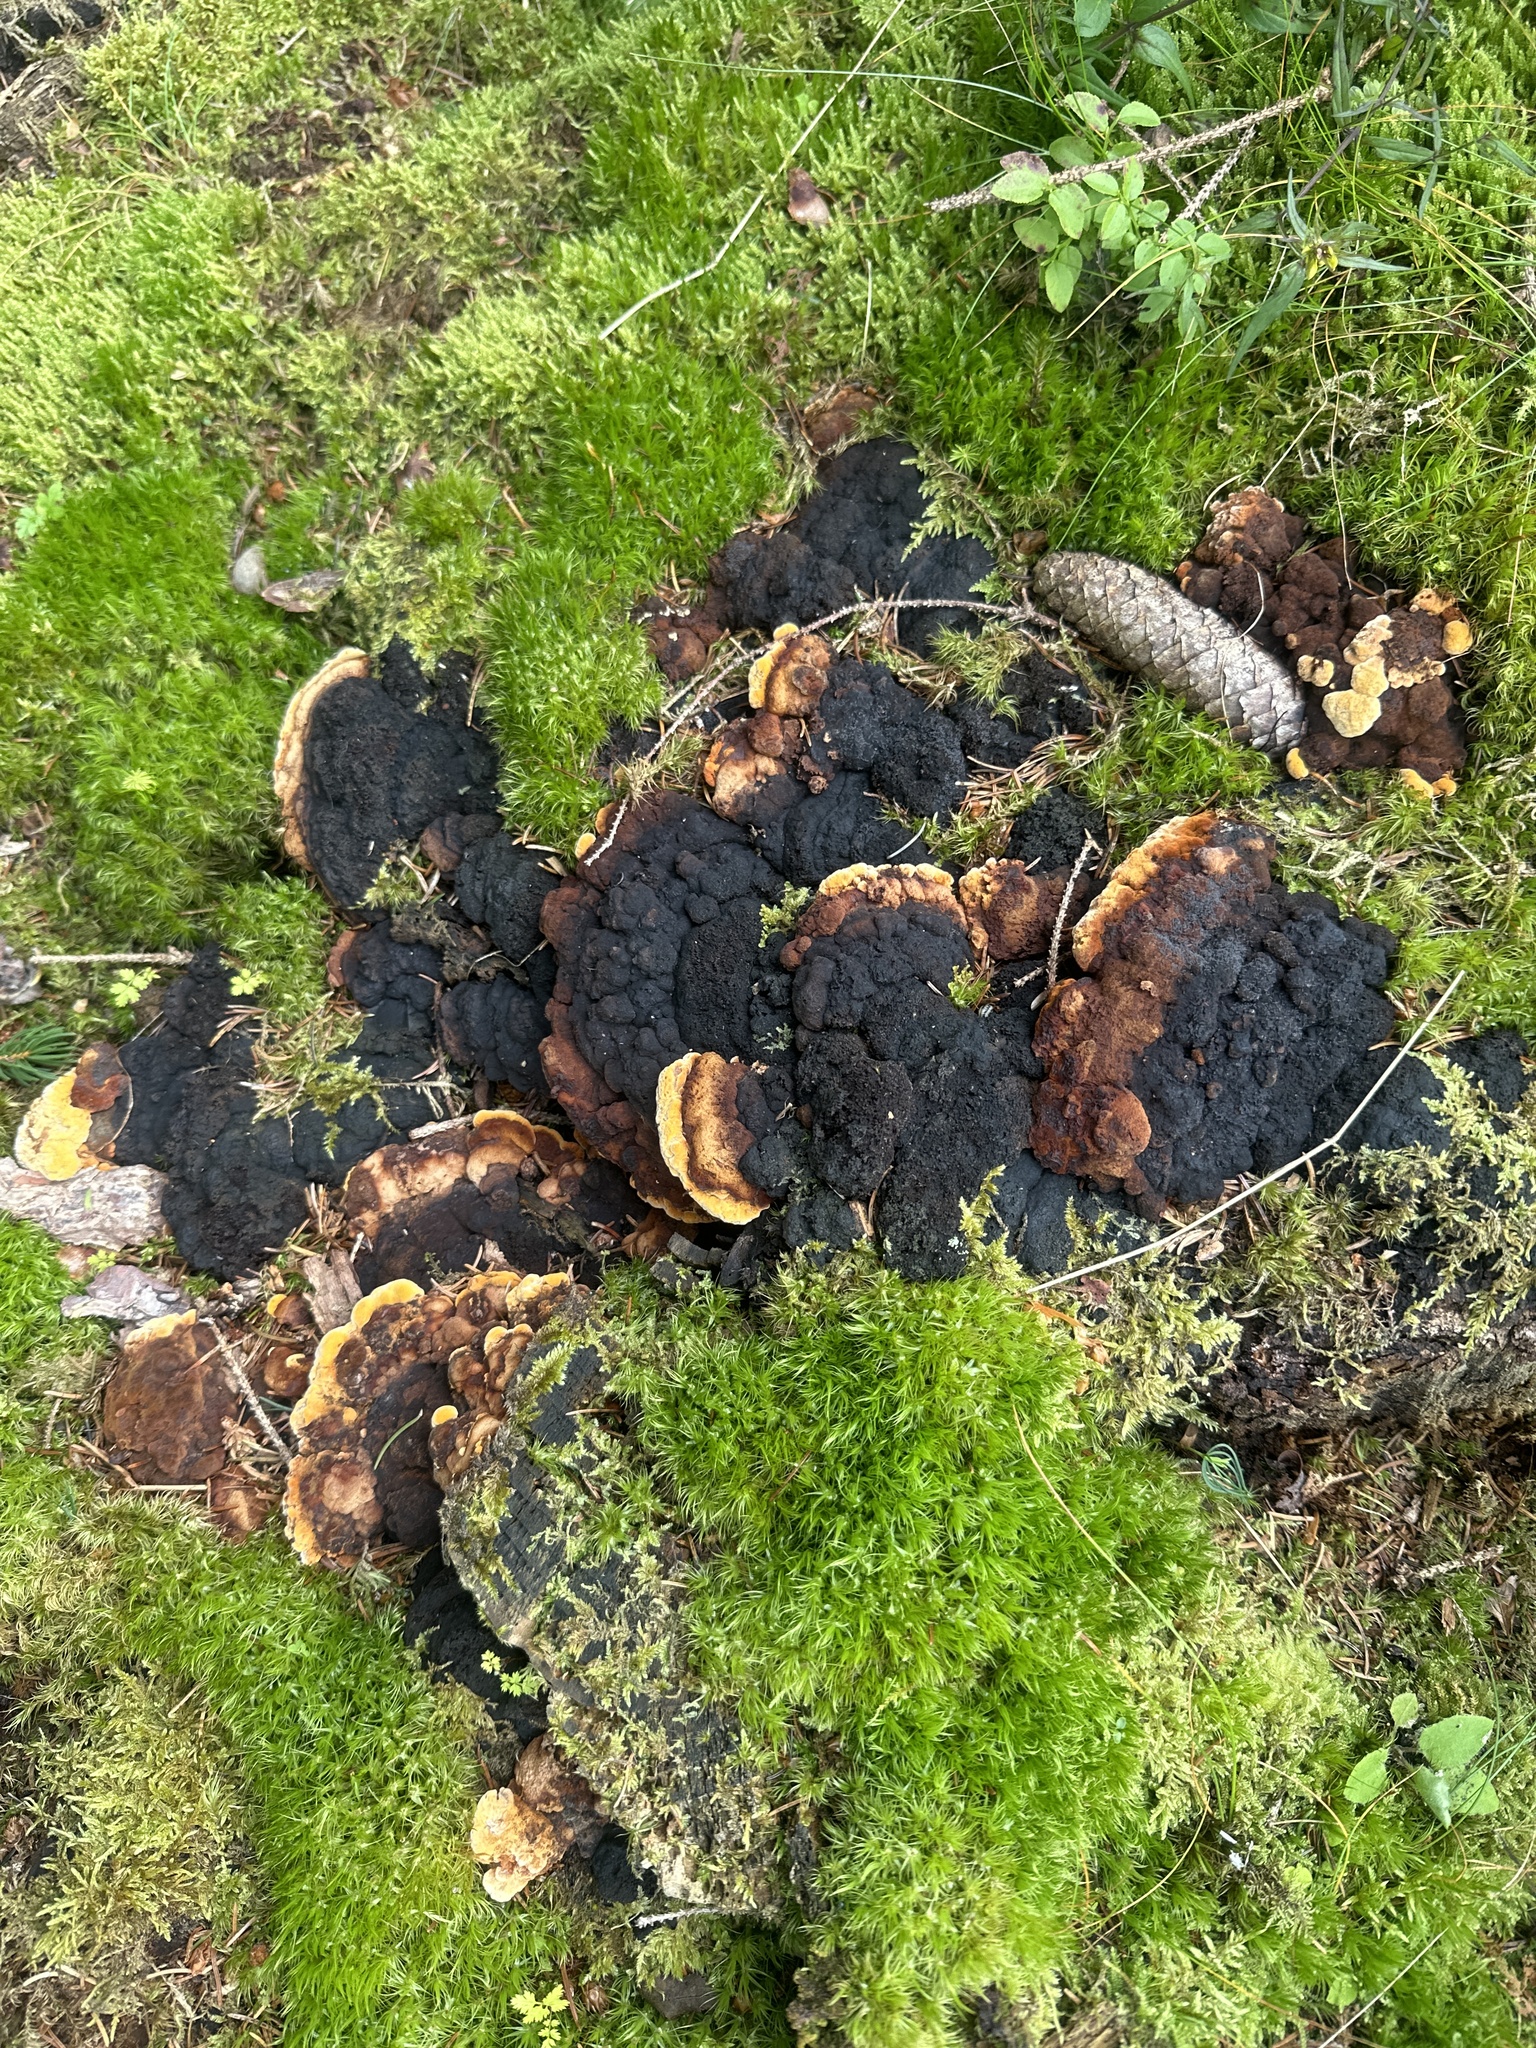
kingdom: Fungi
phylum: Basidiomycota
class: Agaricomycetes
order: Gloeophyllales
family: Gloeophyllaceae
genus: Gloeophyllum
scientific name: Gloeophyllum odoratum
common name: Anise mazegill
